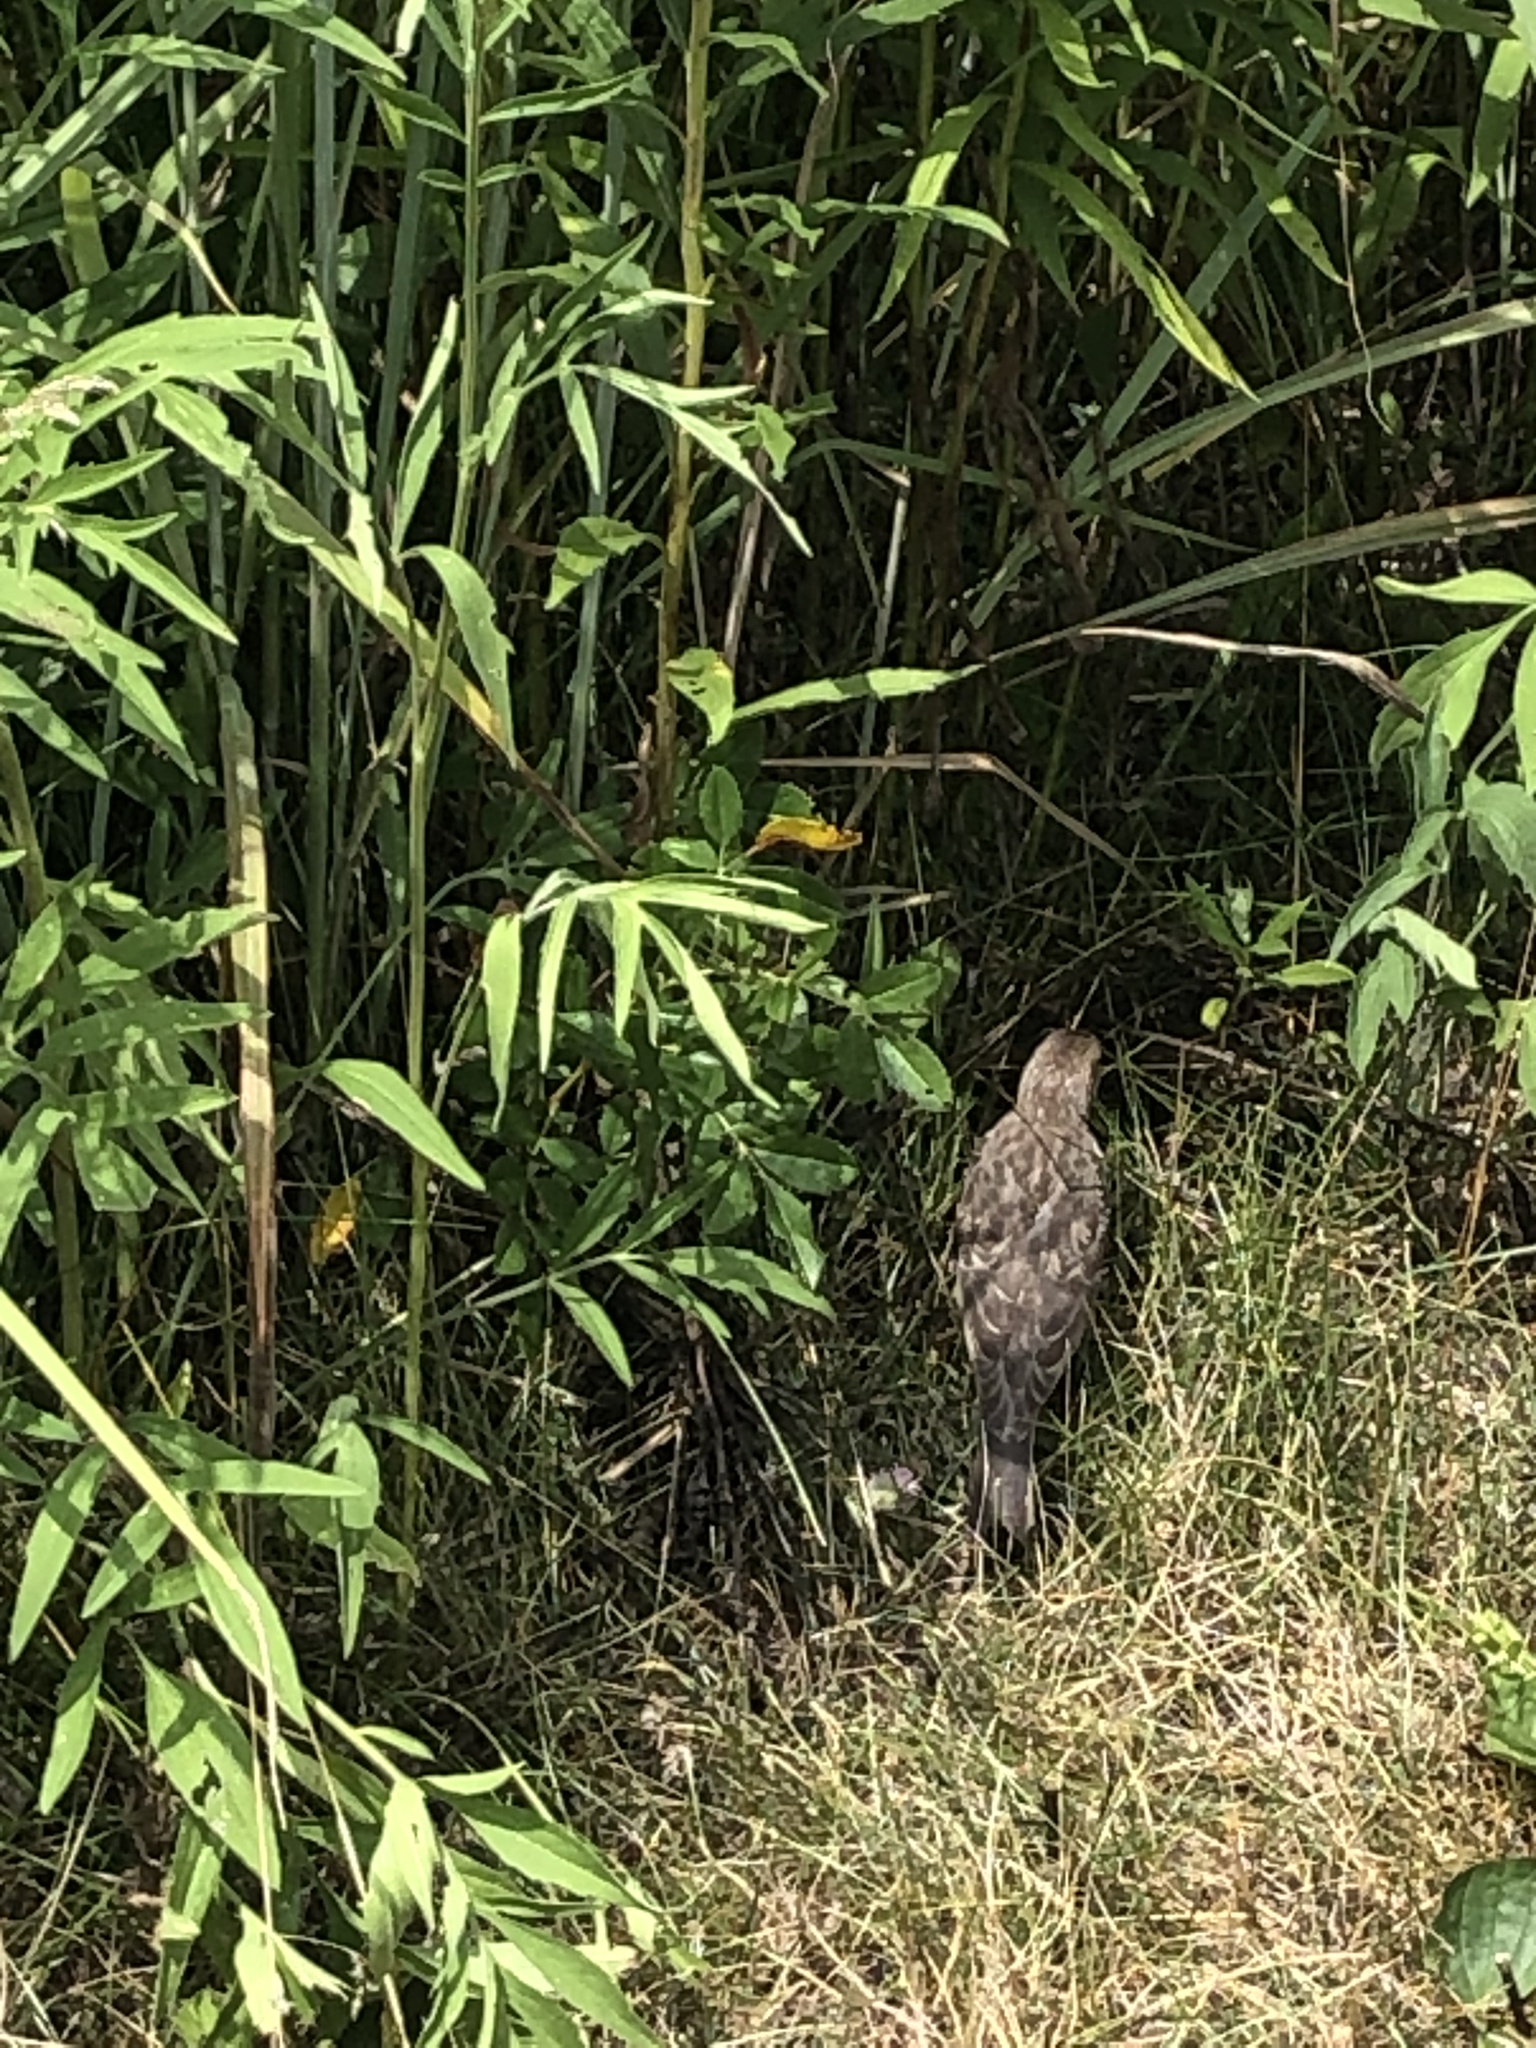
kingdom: Animalia
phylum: Chordata
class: Aves
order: Passeriformes
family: Icteridae
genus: Agelaius
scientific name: Agelaius phoeniceus
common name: Red-winged blackbird
